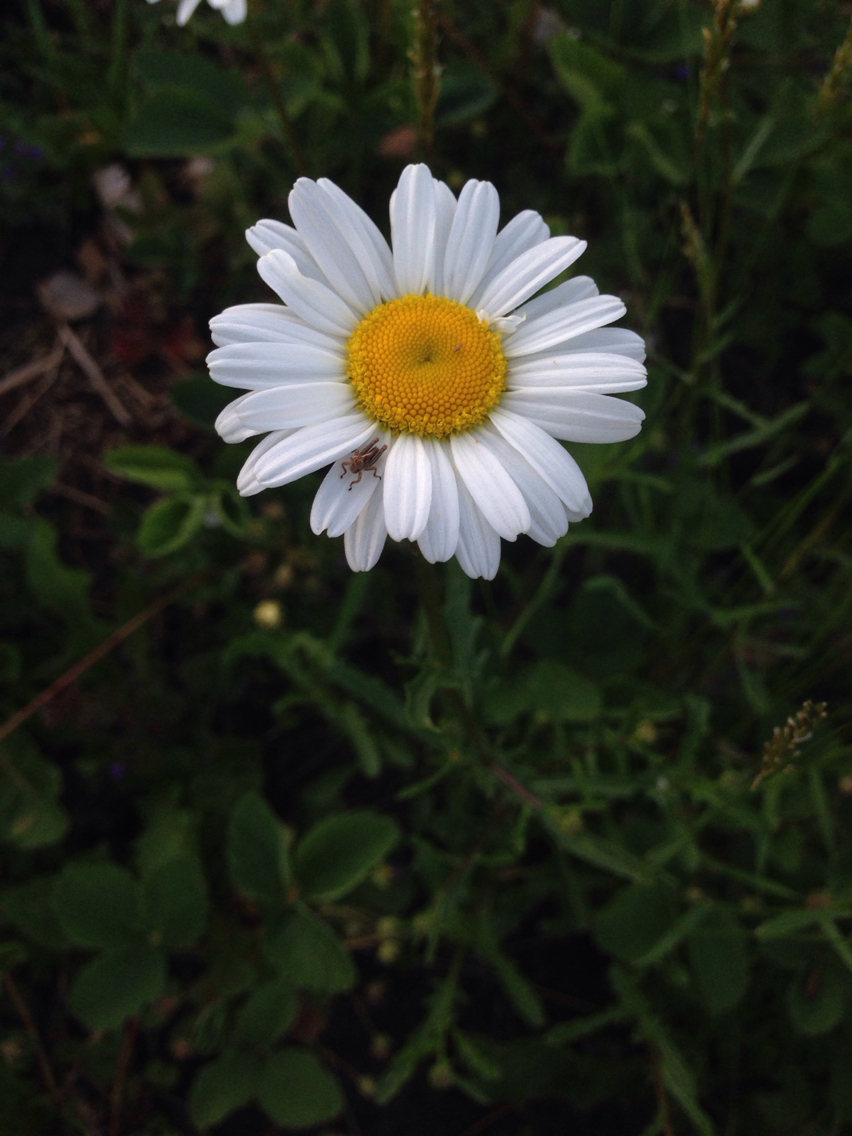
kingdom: Plantae
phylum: Tracheophyta
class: Magnoliopsida
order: Asterales
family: Asteraceae
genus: Leucanthemum
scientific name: Leucanthemum vulgare
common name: Oxeye daisy
